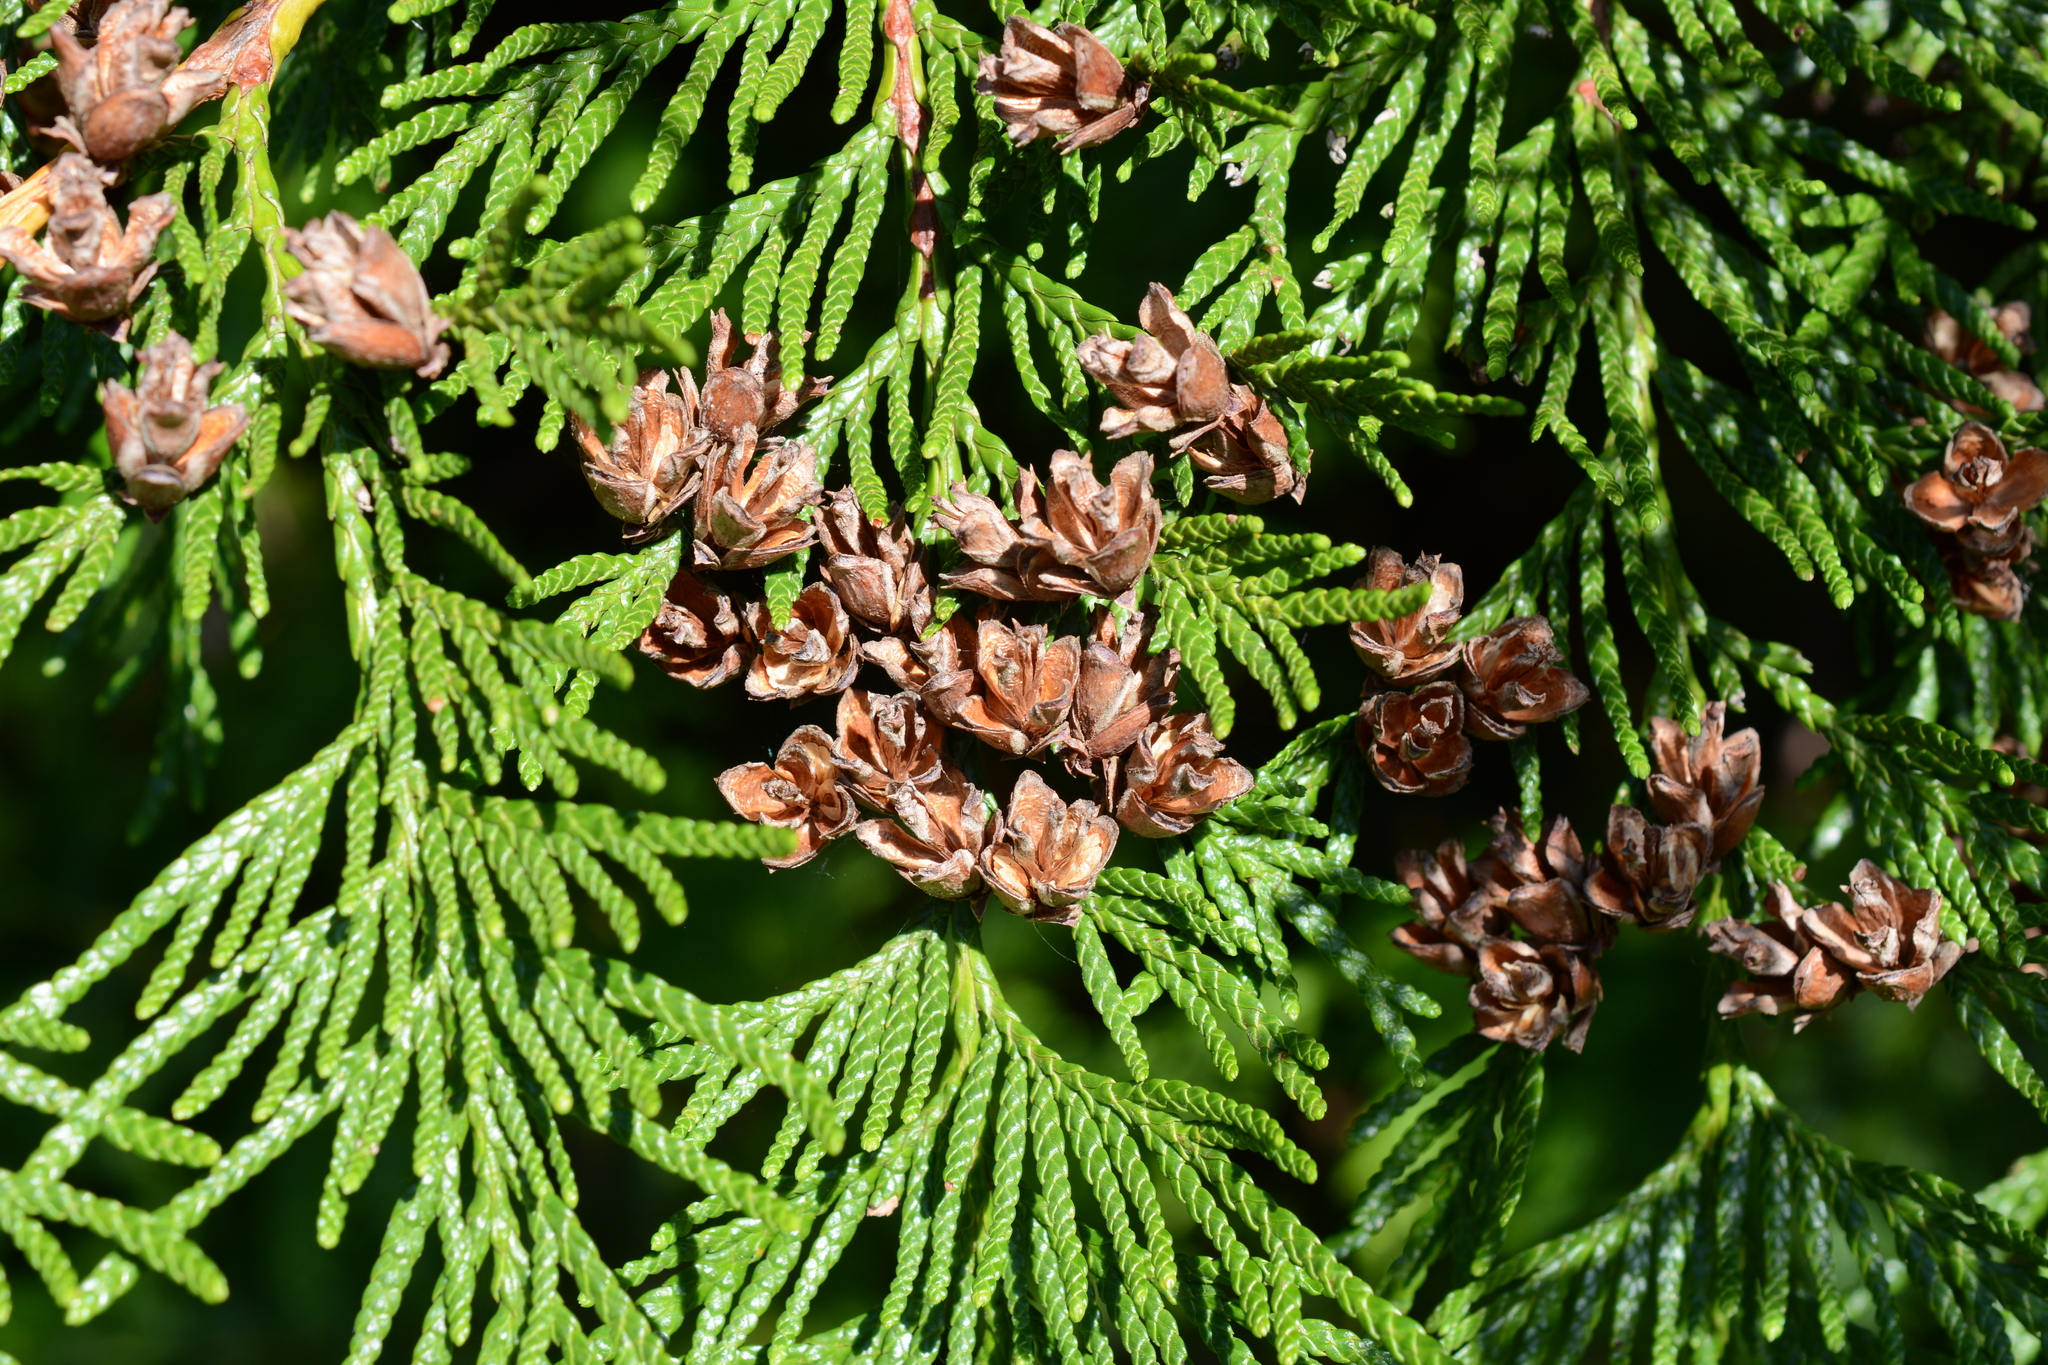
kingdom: Plantae
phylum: Tracheophyta
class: Pinopsida
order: Pinales
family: Cupressaceae
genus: Thuja
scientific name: Thuja plicata
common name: Western red-cedar
